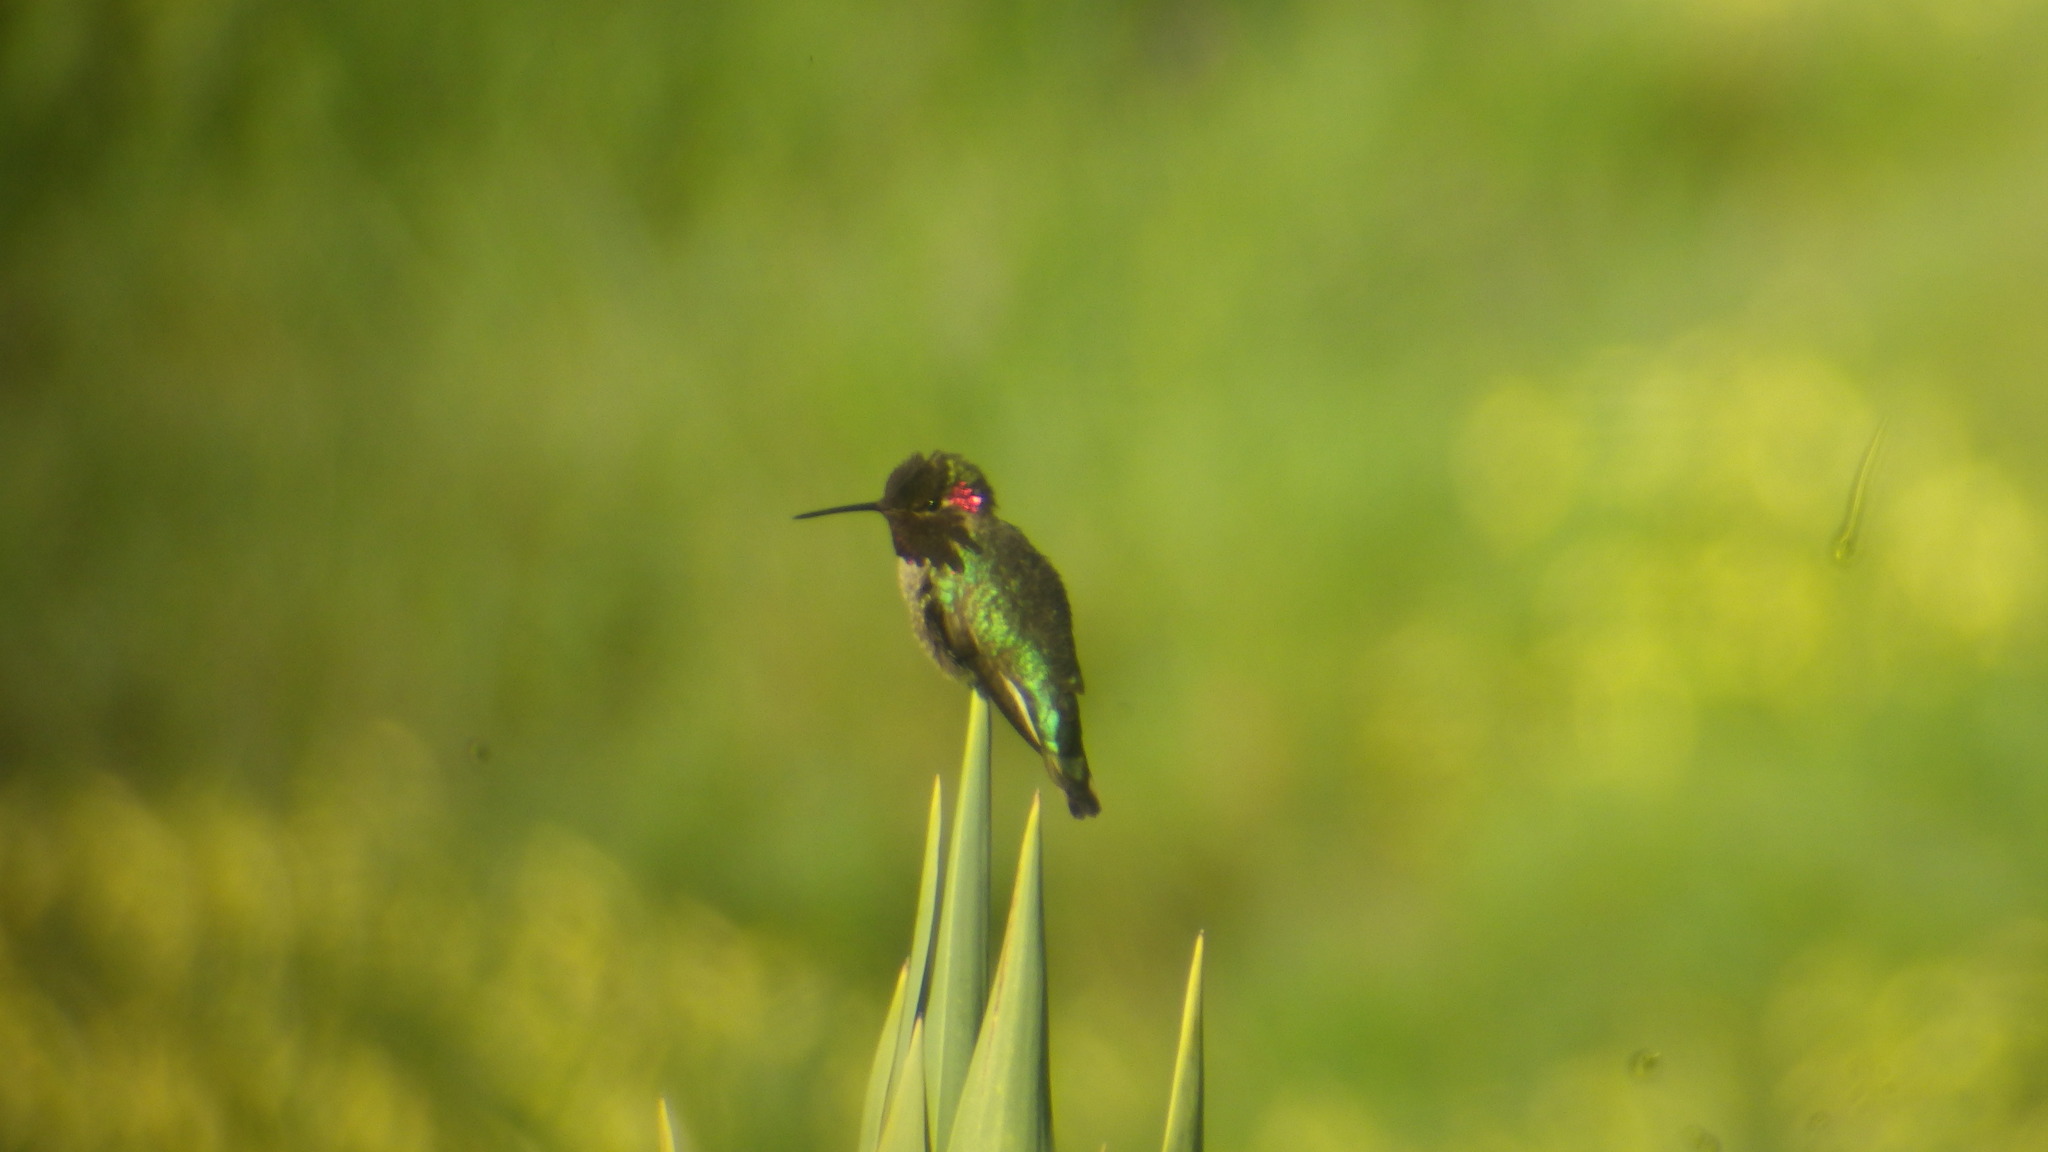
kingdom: Animalia
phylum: Chordata
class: Aves
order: Apodiformes
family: Trochilidae
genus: Calypte
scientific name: Calypte anna
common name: Anna's hummingbird
